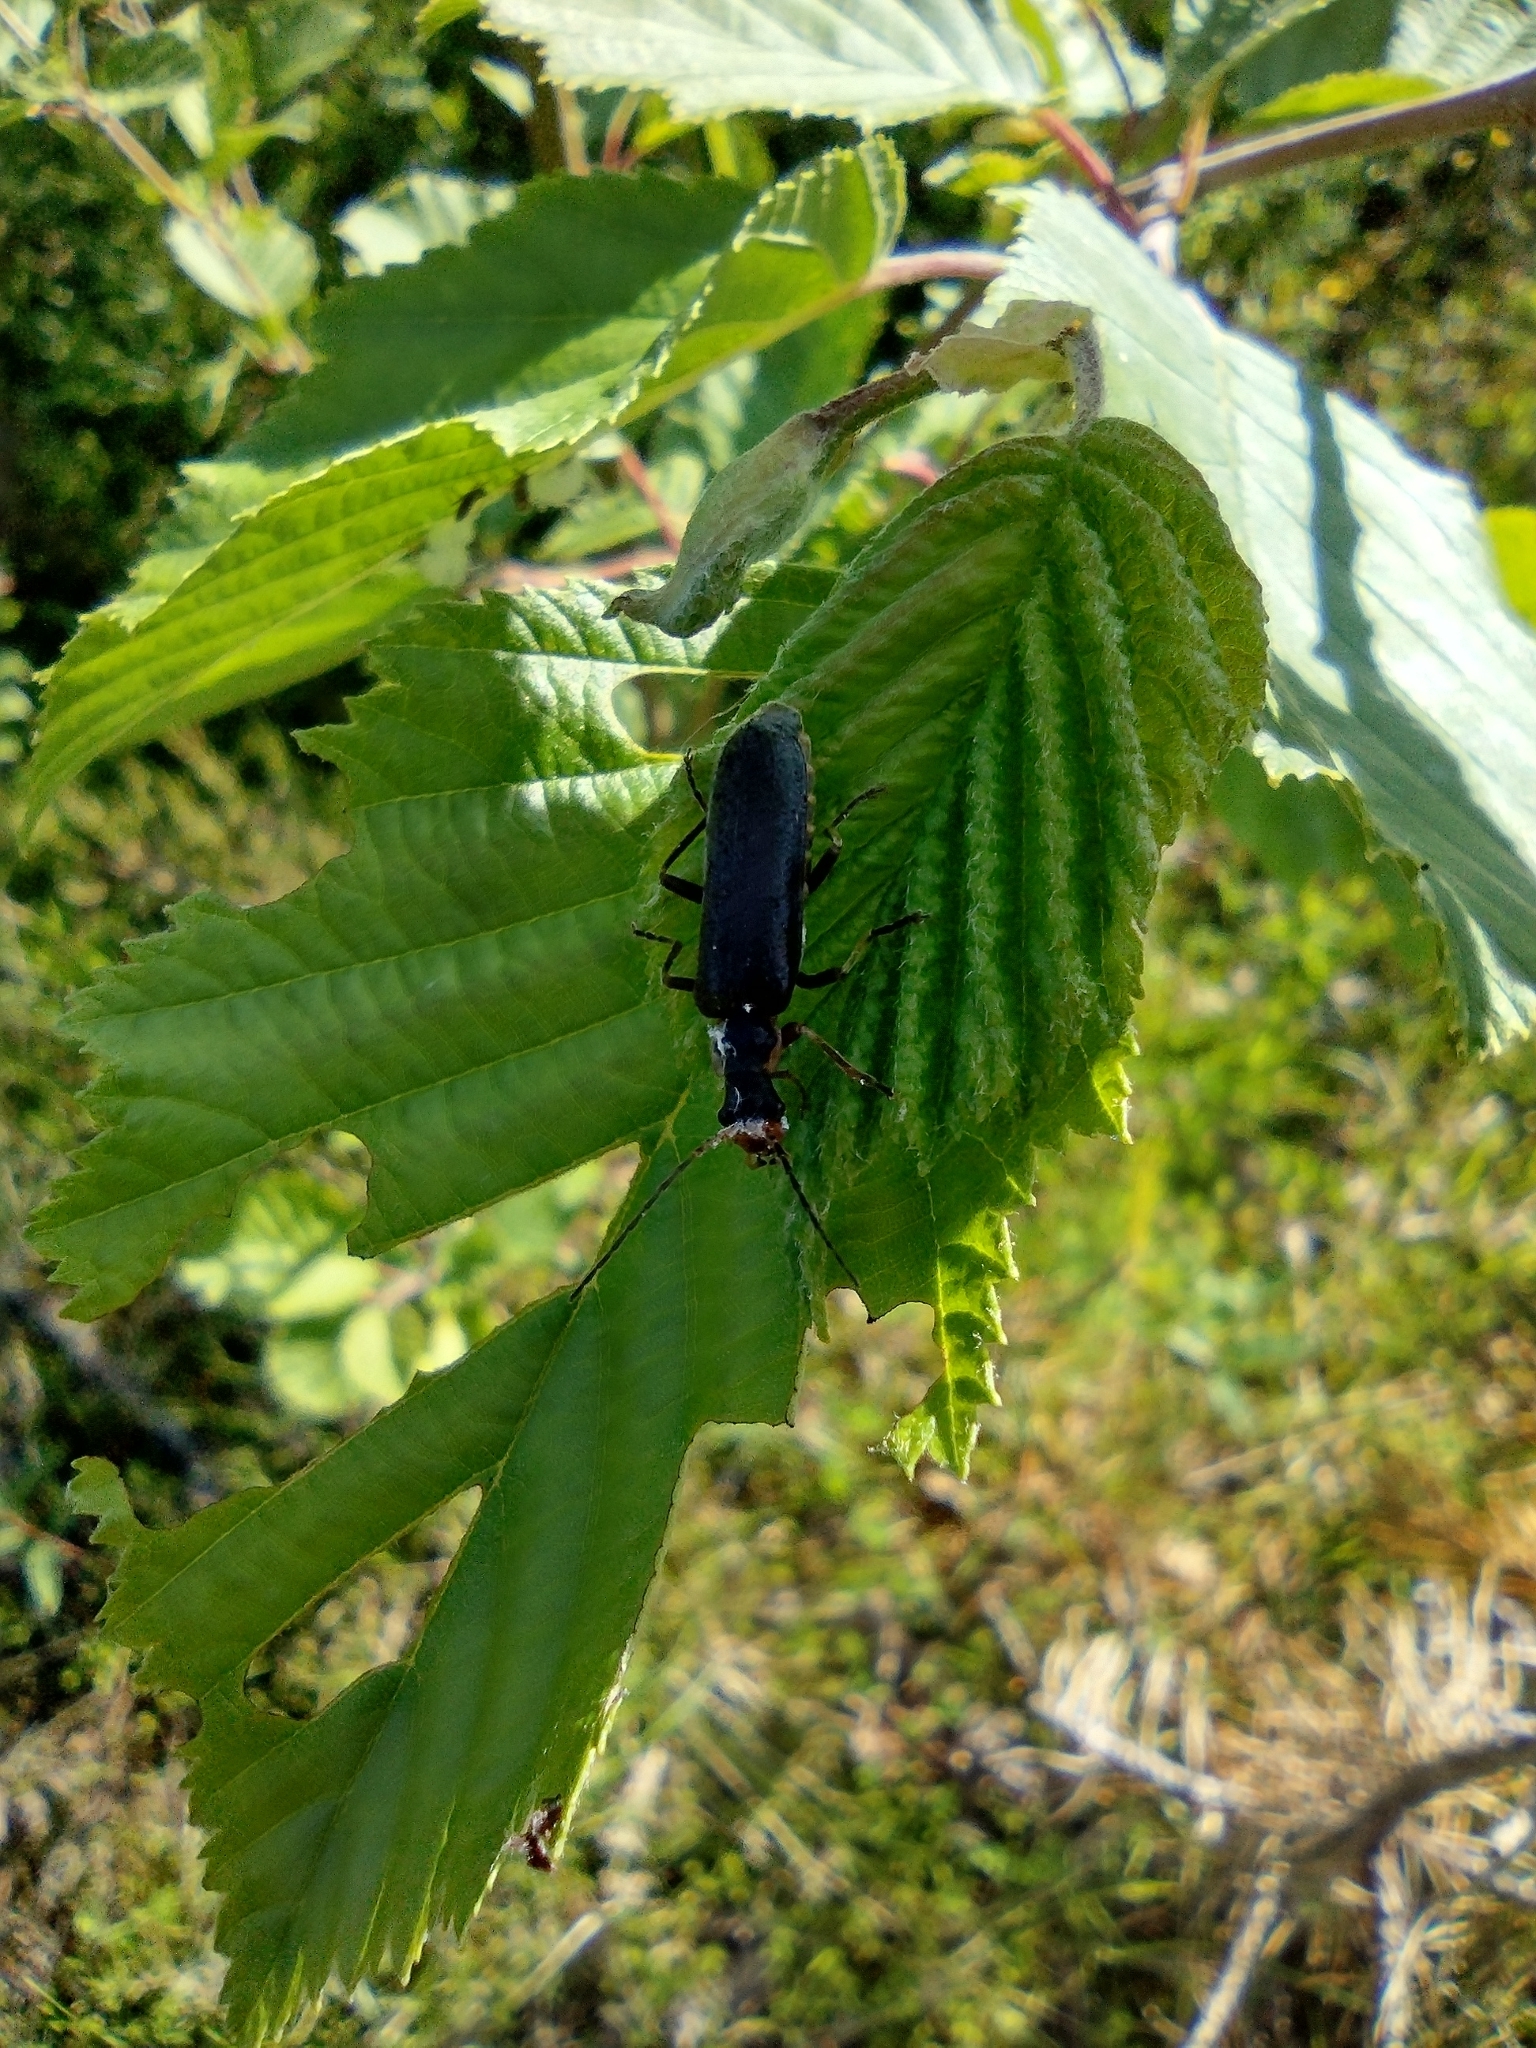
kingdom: Animalia
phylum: Arthropoda
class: Insecta
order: Coleoptera
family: Cantharidae
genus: Podabrus
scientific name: Podabrus alpinus
